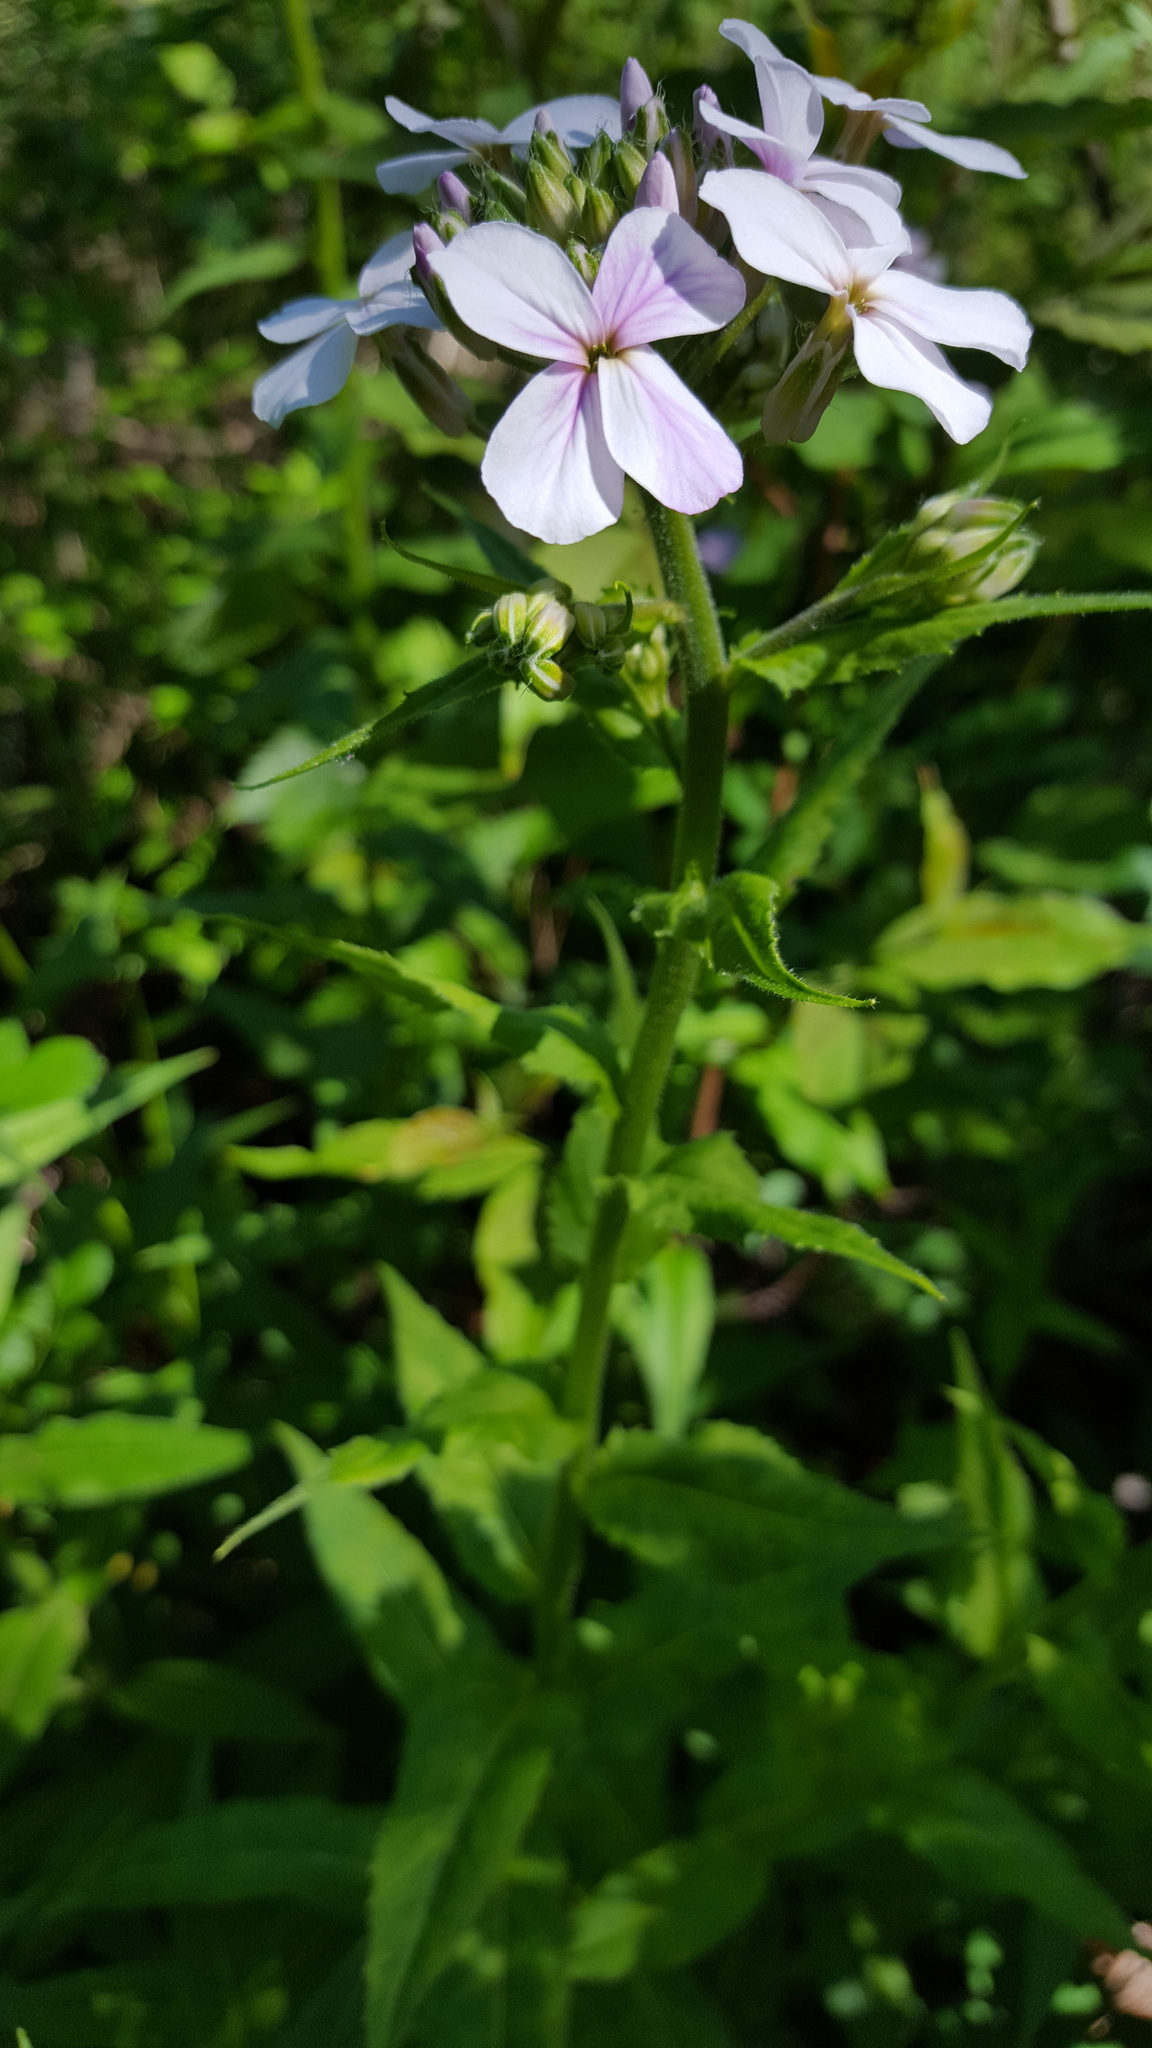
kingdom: Plantae
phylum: Tracheophyta
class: Magnoliopsida
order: Brassicales
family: Brassicaceae
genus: Hesperis
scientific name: Hesperis matronalis
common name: Dame's-violet
